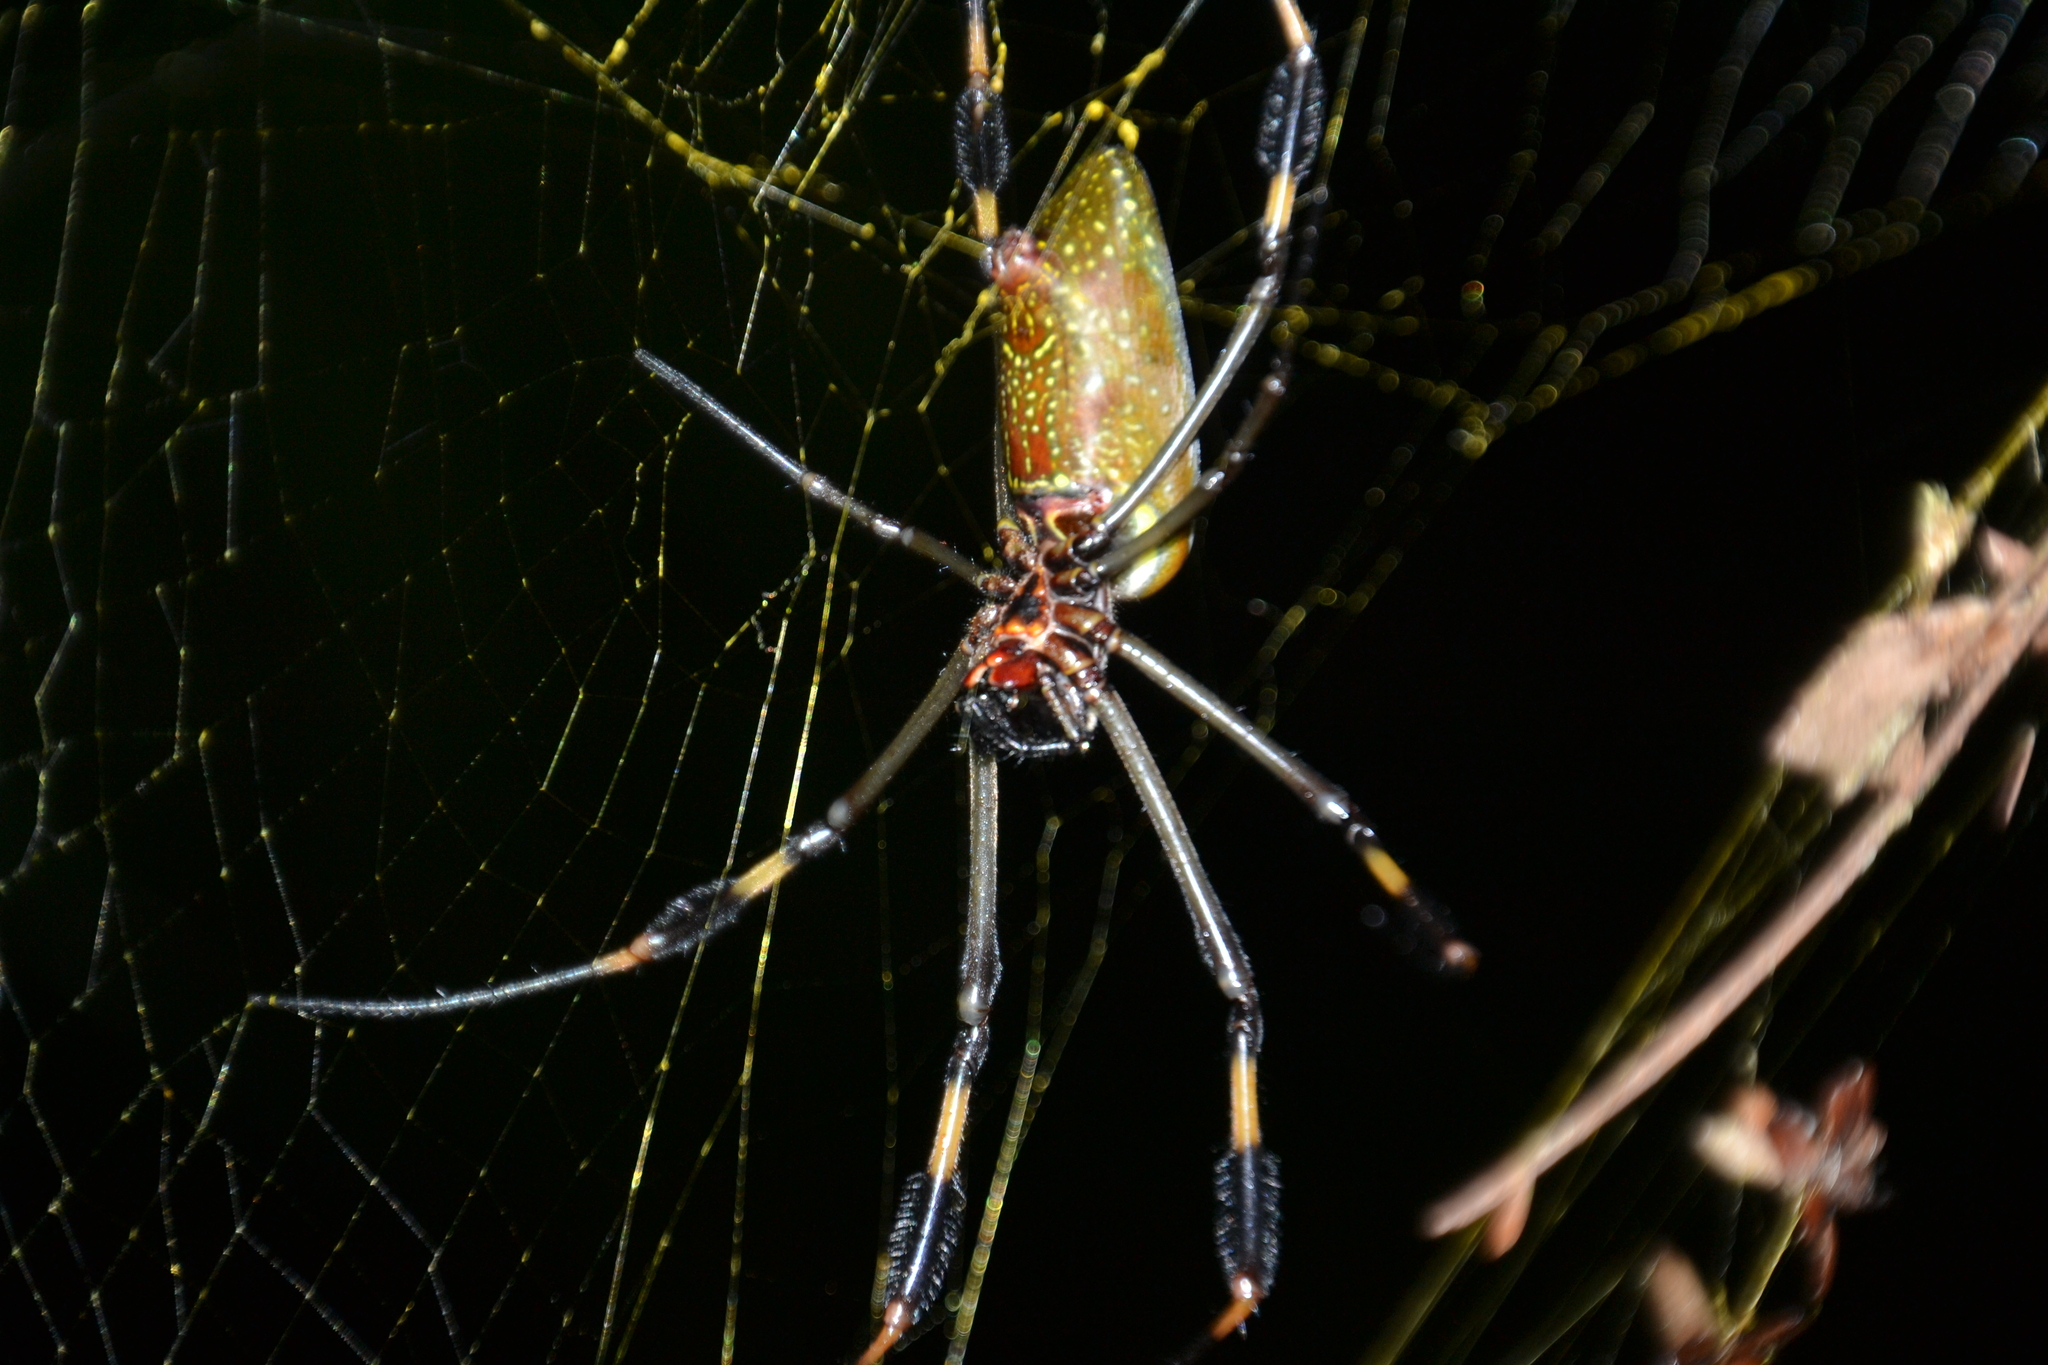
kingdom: Animalia
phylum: Arthropoda
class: Arachnida
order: Araneae
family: Araneidae
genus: Trichonephila
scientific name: Trichonephila clavipes
